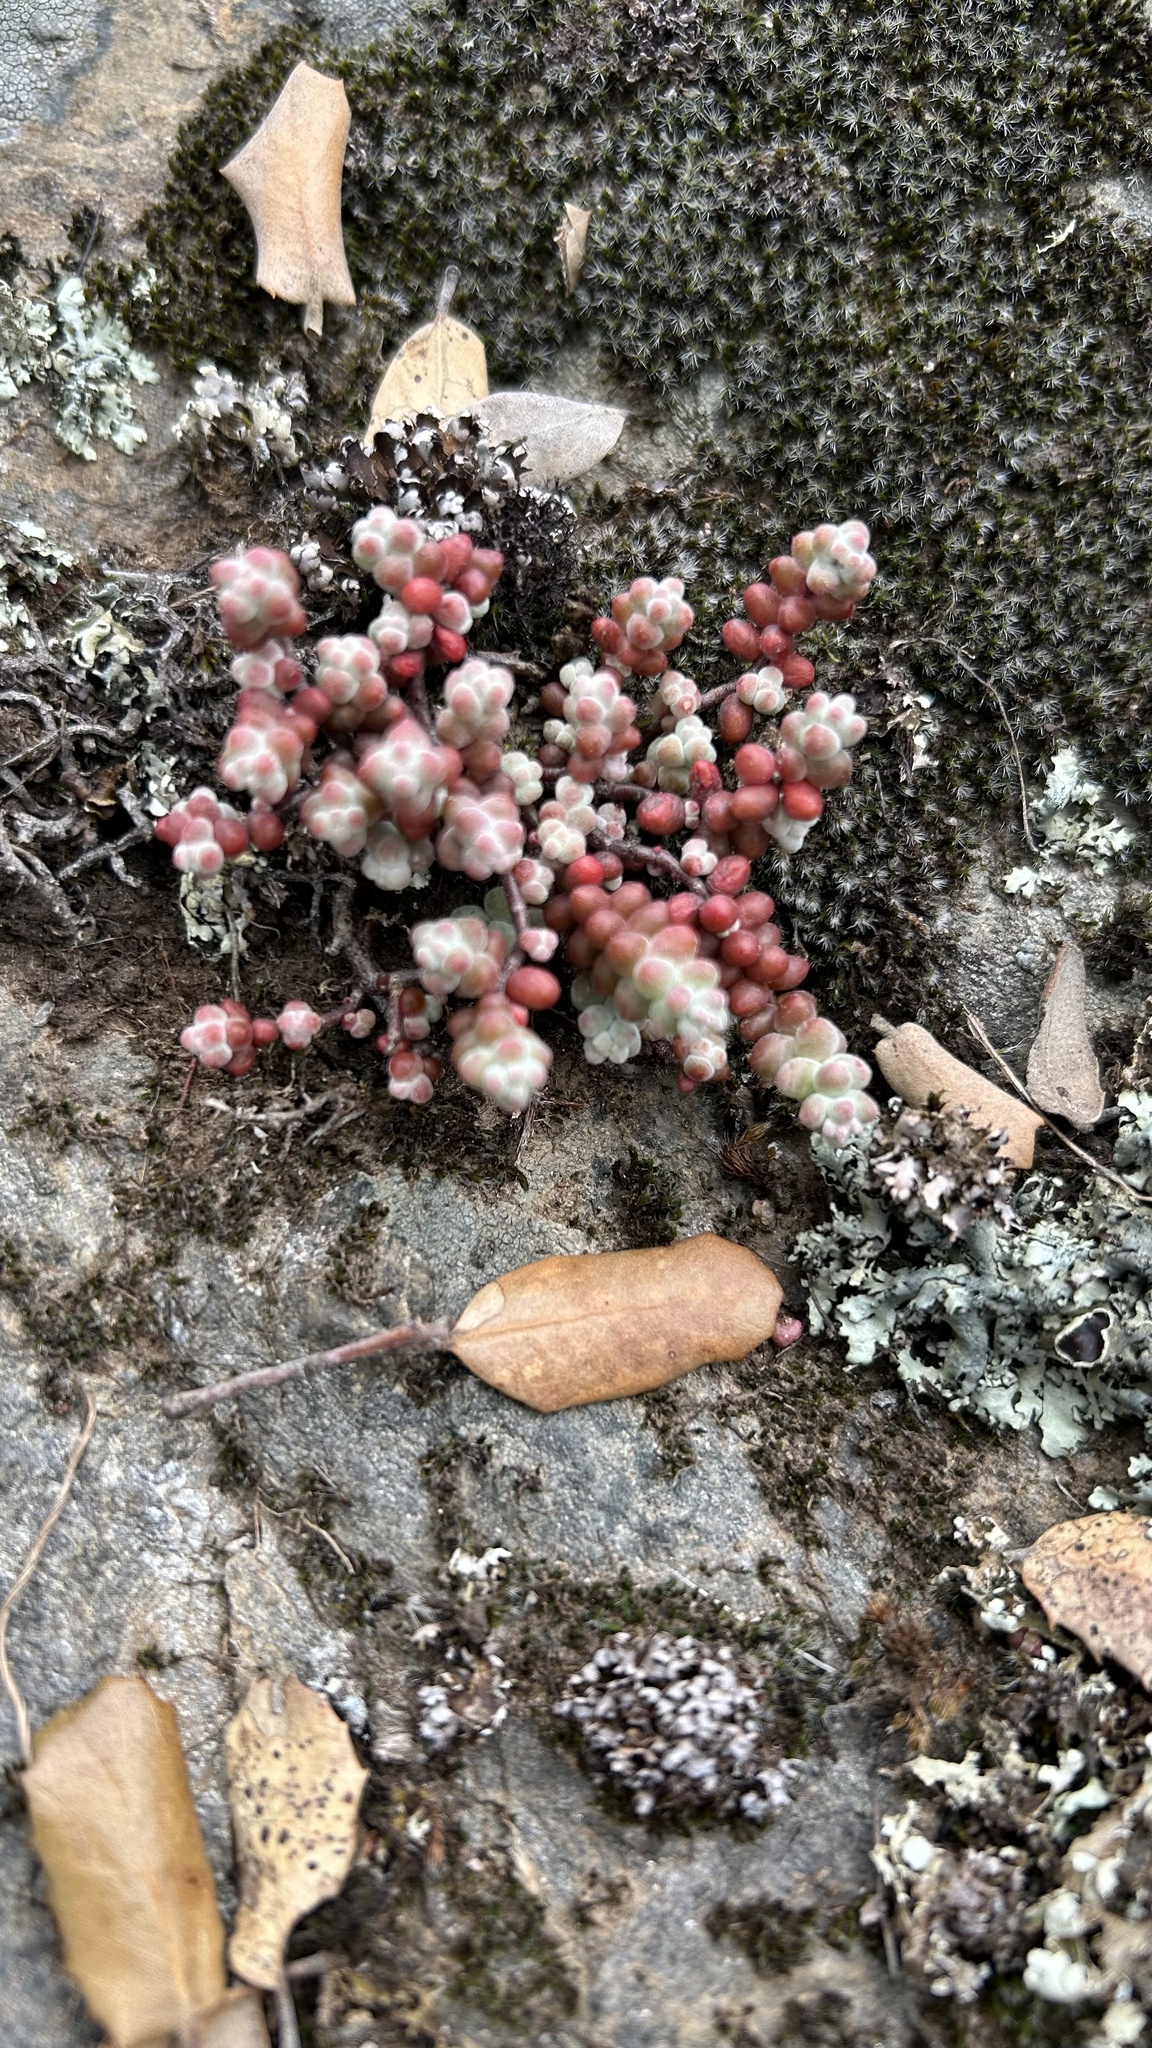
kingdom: Plantae
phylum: Tracheophyta
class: Magnoliopsida
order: Saxifragales
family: Crassulaceae
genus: Sedum
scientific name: Sedum brevifolium
